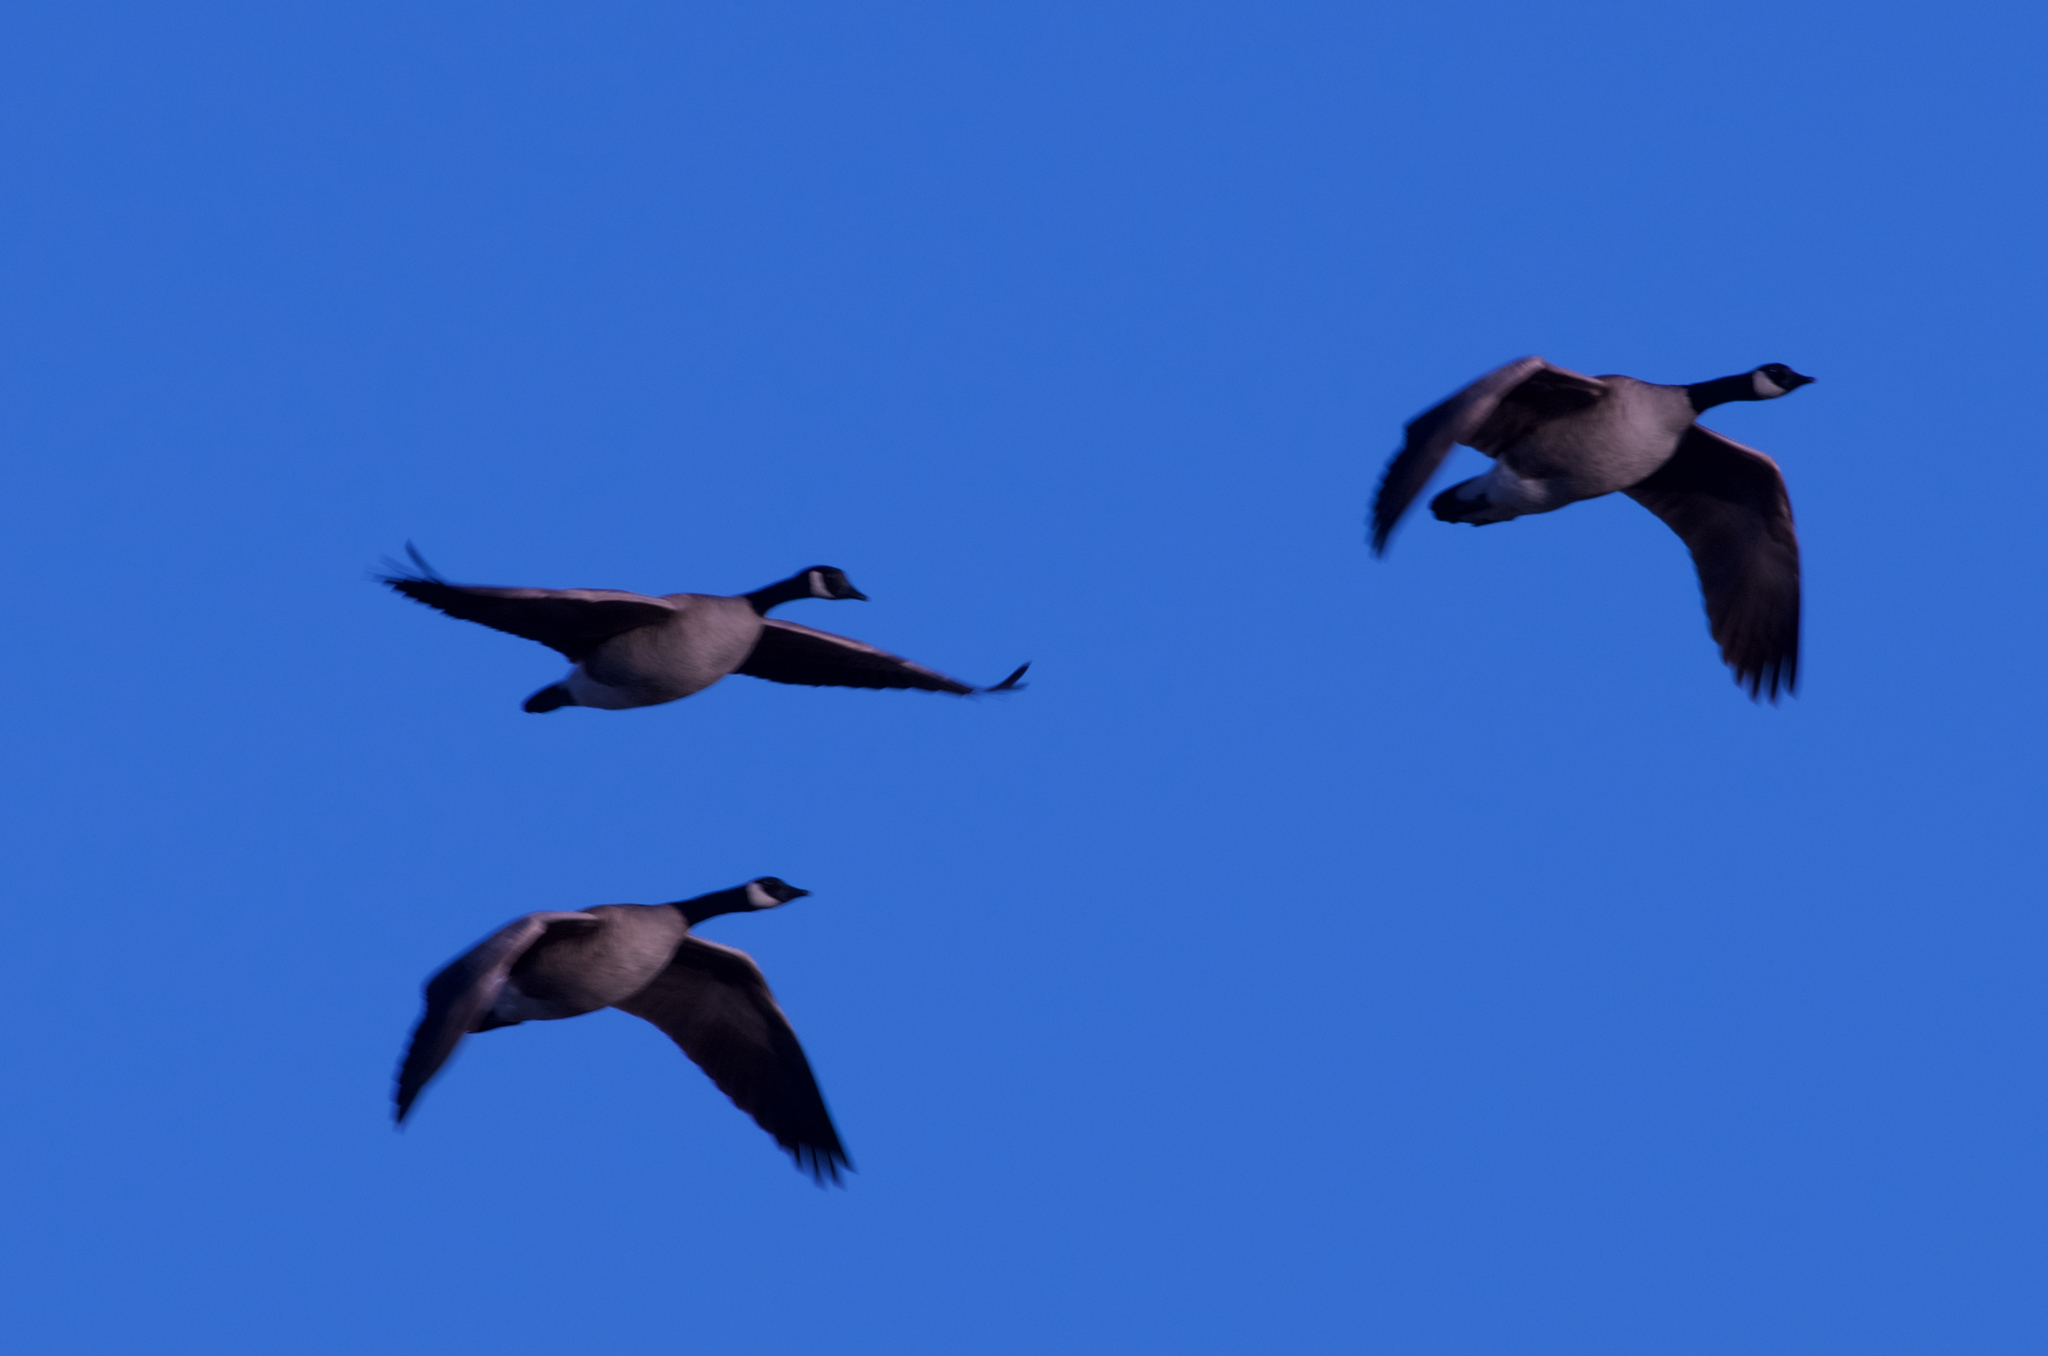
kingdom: Animalia
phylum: Chordata
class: Aves
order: Anseriformes
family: Anatidae
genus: Branta
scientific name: Branta canadensis
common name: Canada goose
